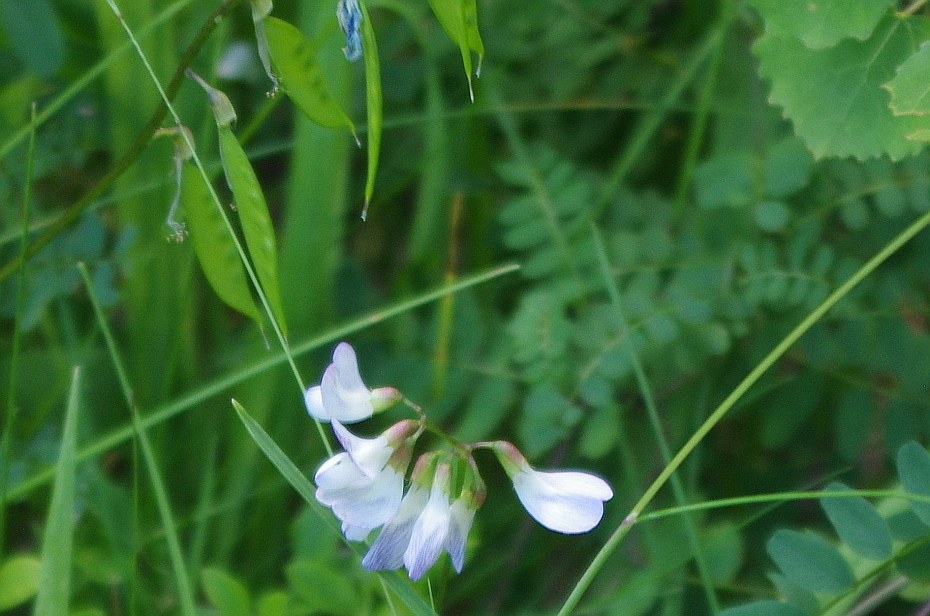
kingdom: Plantae
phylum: Tracheophyta
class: Magnoliopsida
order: Fabales
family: Fabaceae
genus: Vicia
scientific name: Vicia sylvatica
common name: Wood vetch
